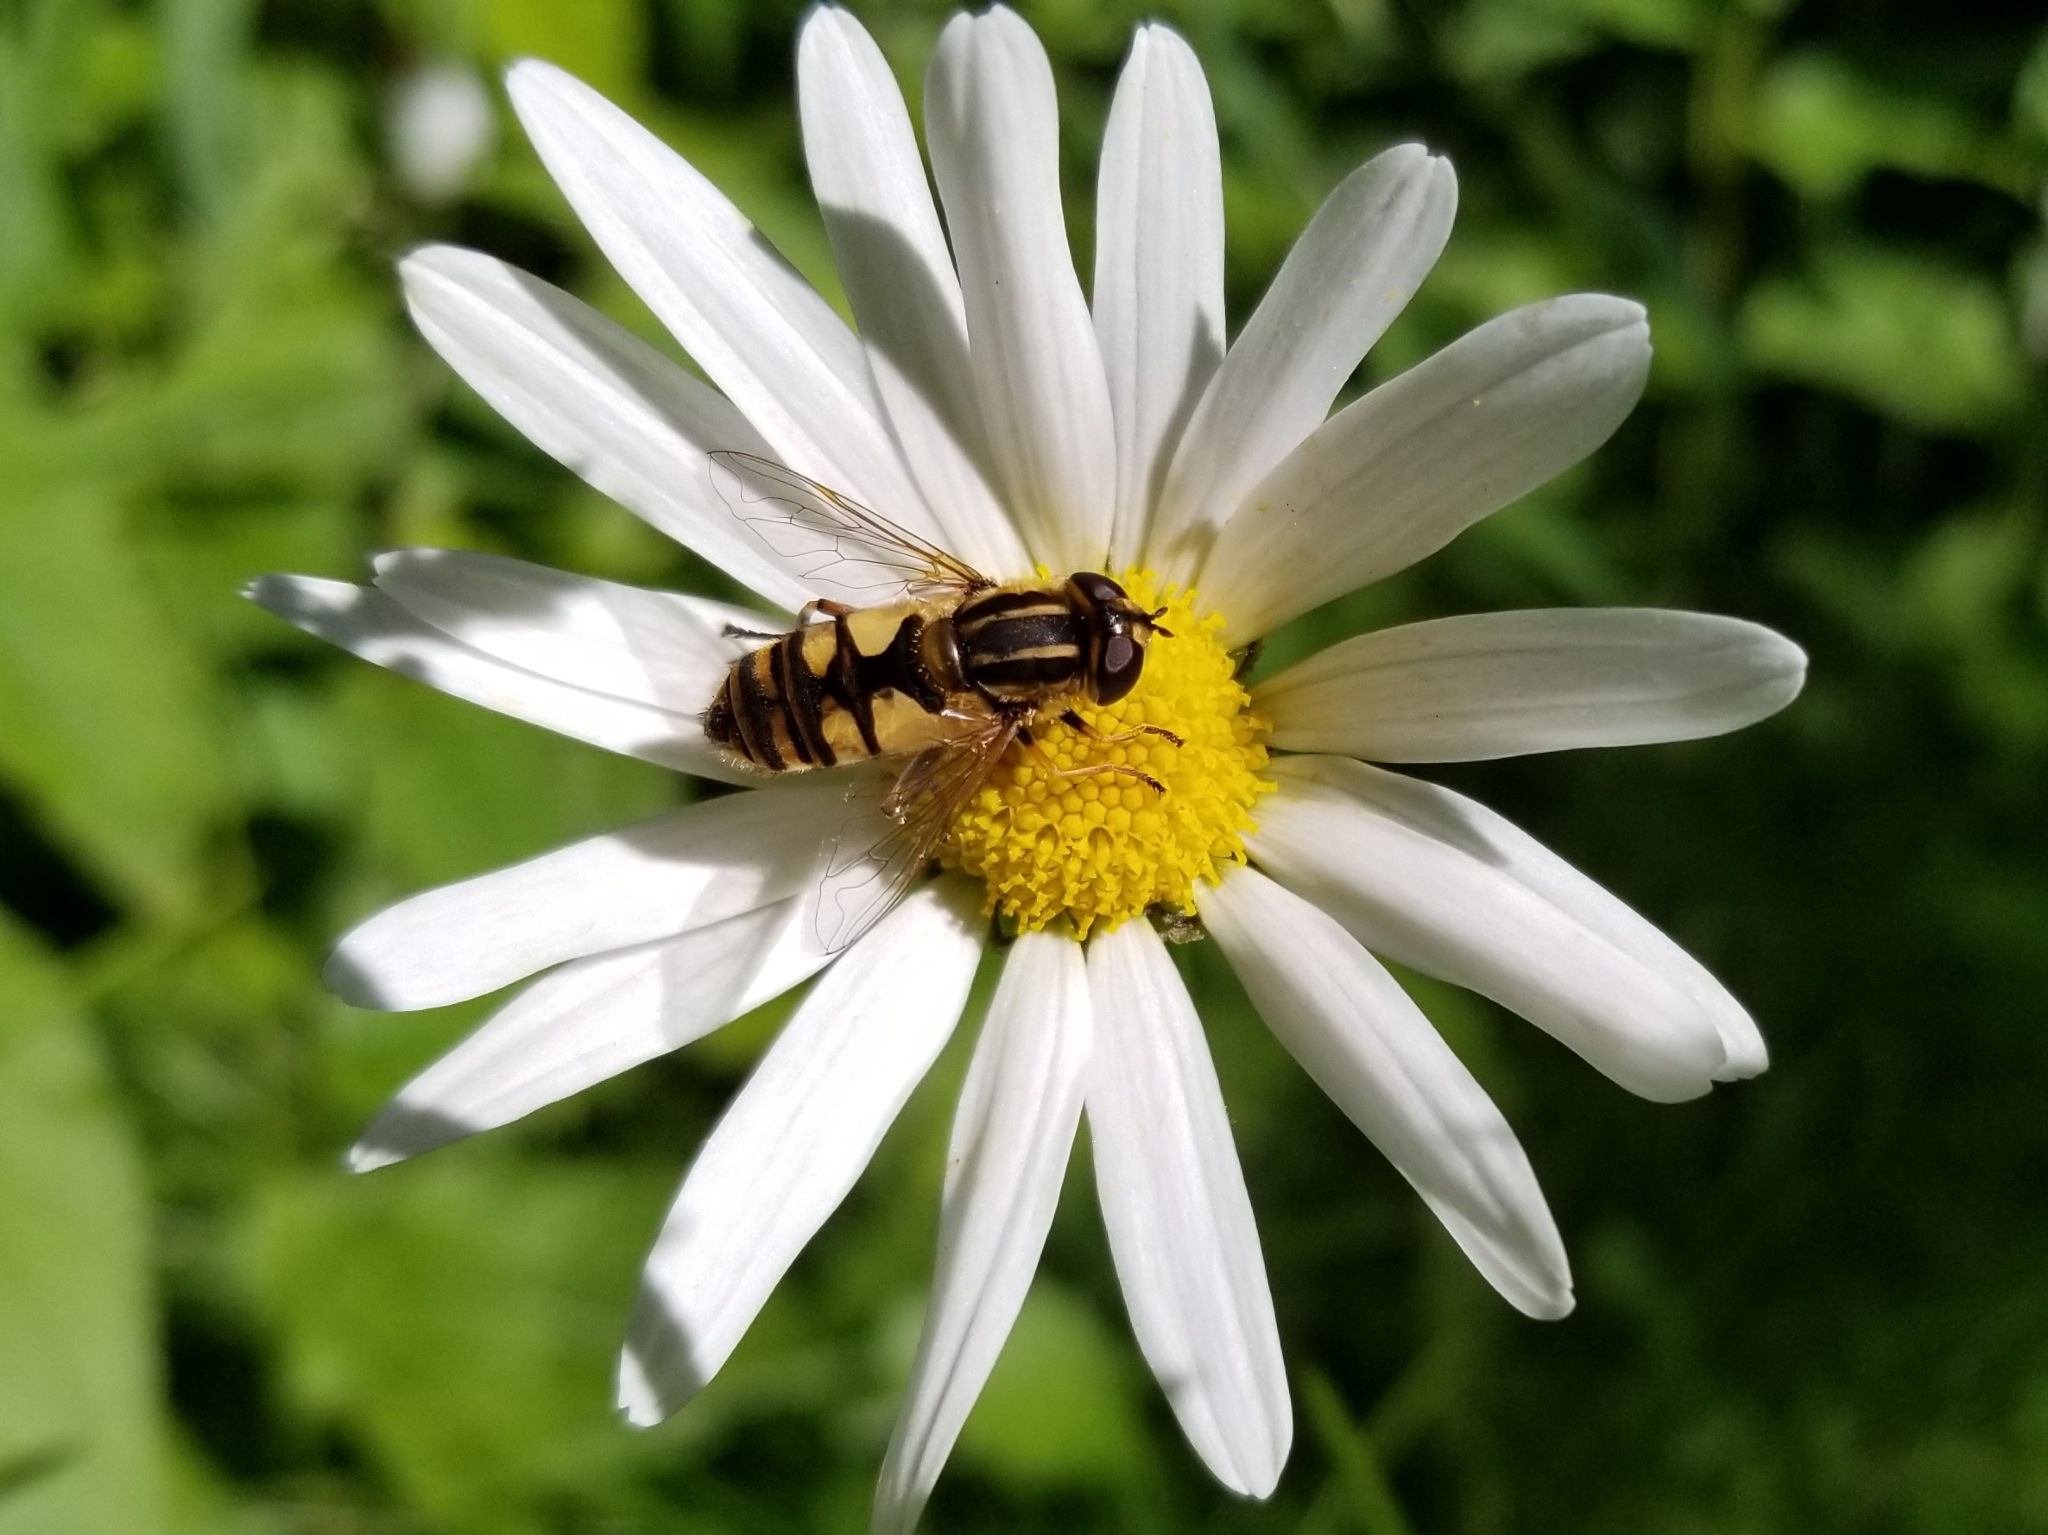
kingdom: Animalia
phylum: Arthropoda
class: Insecta
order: Diptera
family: Syrphidae
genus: Helophilus
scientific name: Helophilus hybridus
